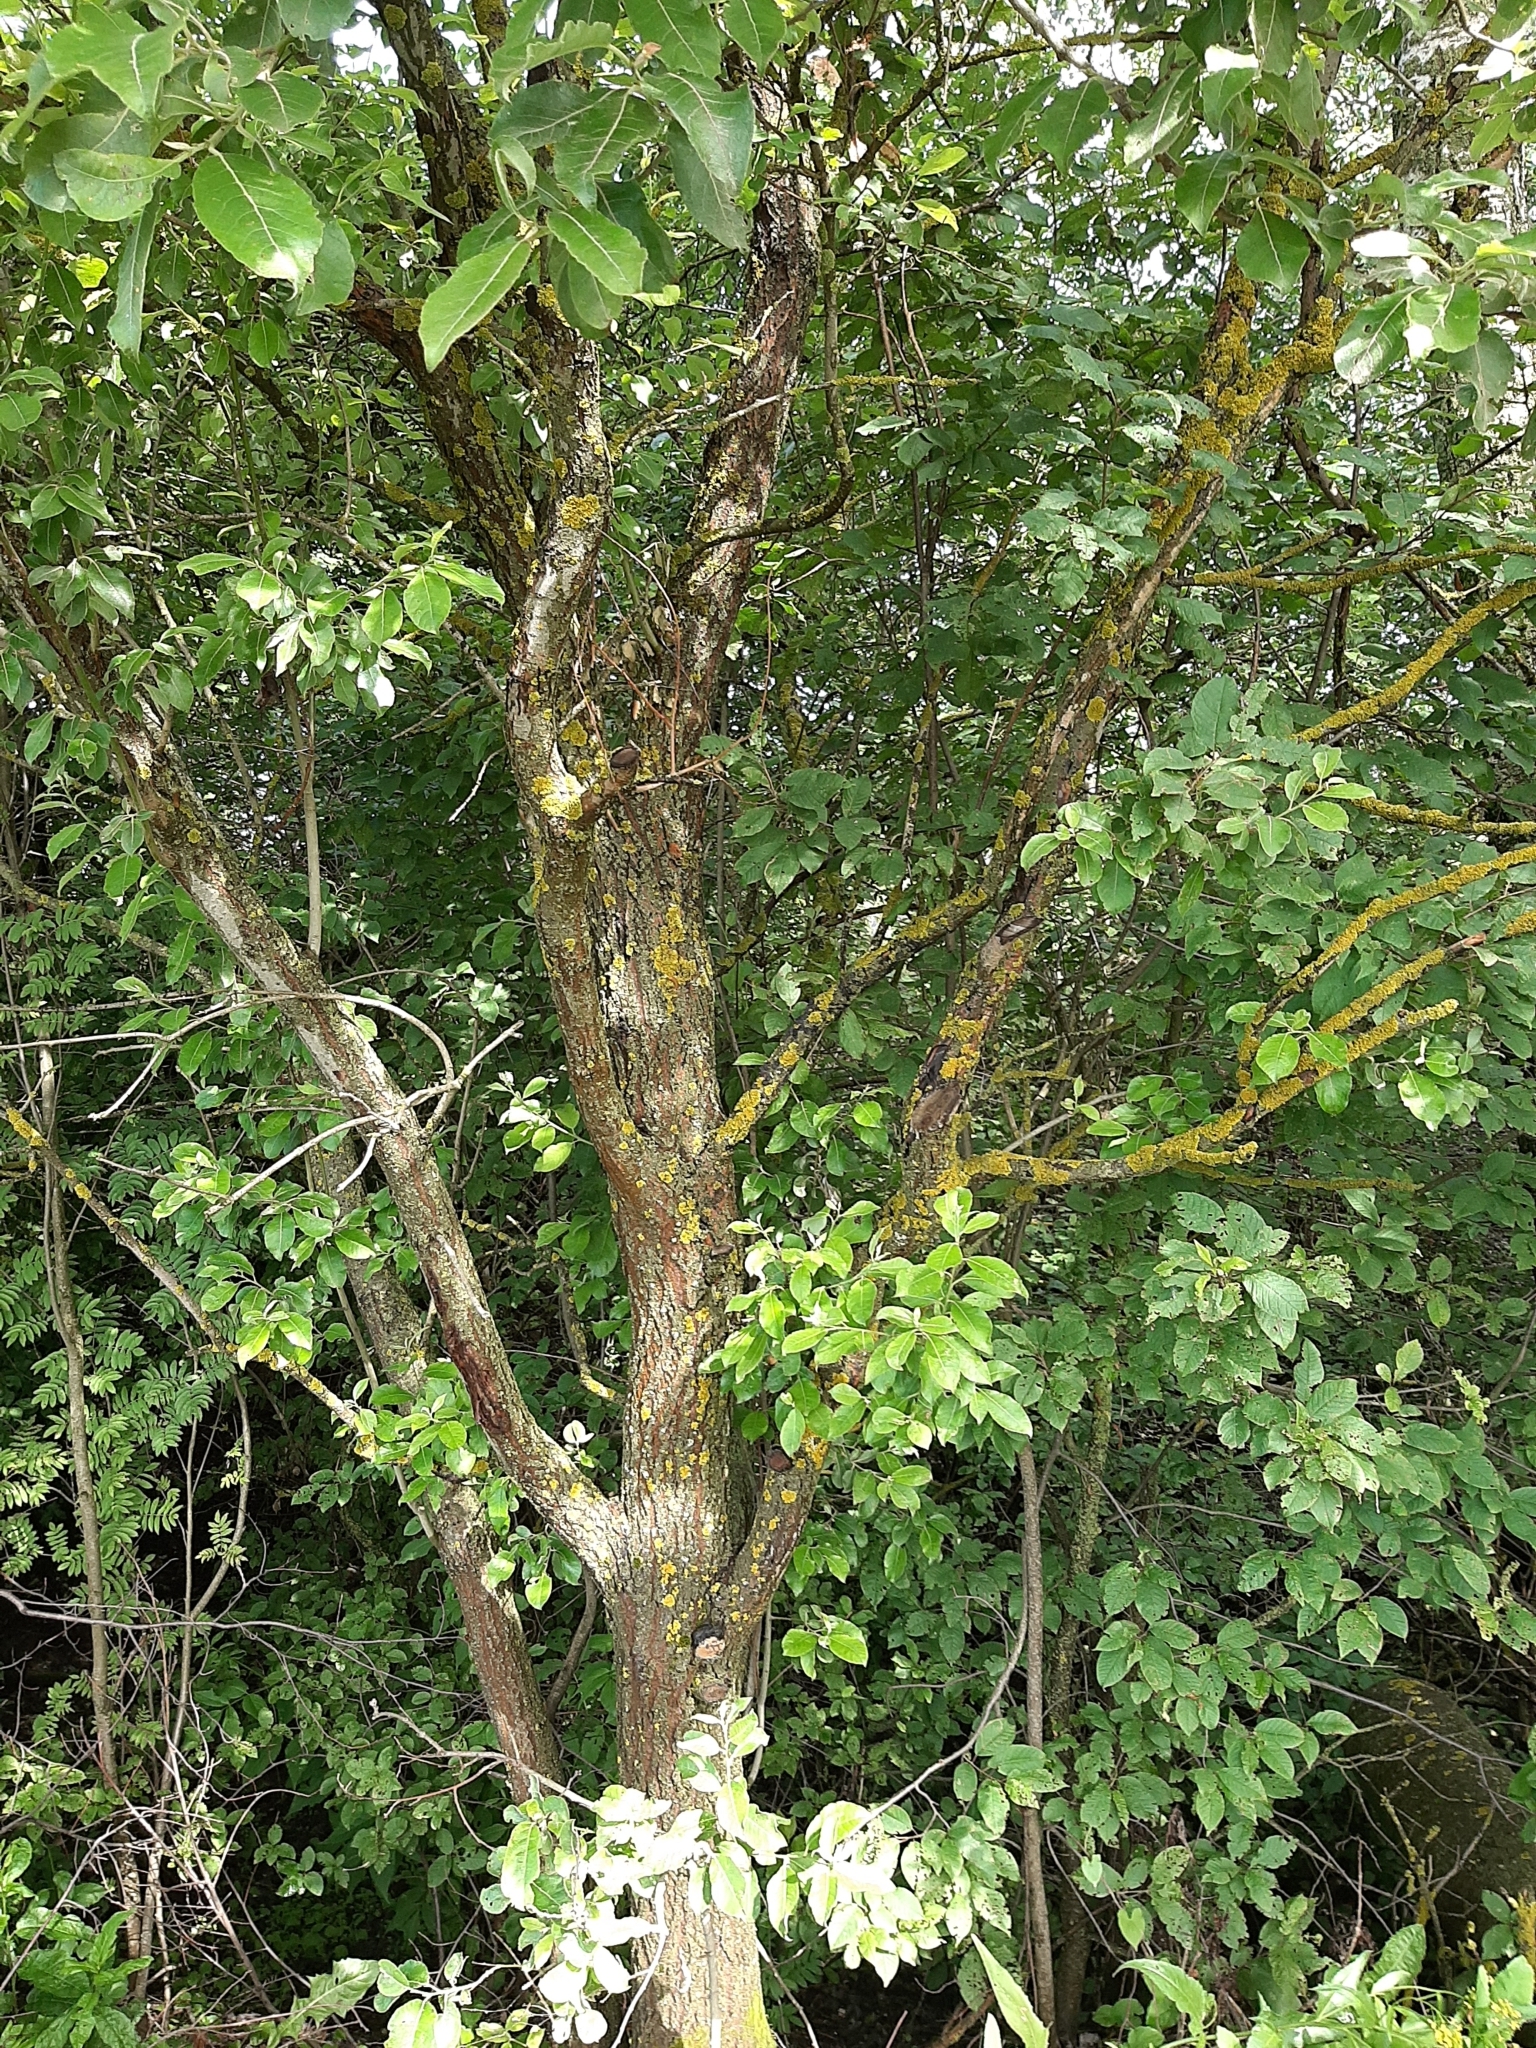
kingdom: Plantae
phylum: Tracheophyta
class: Magnoliopsida
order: Malpighiales
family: Salicaceae
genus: Salix
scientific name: Salix caprea
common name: Goat willow
